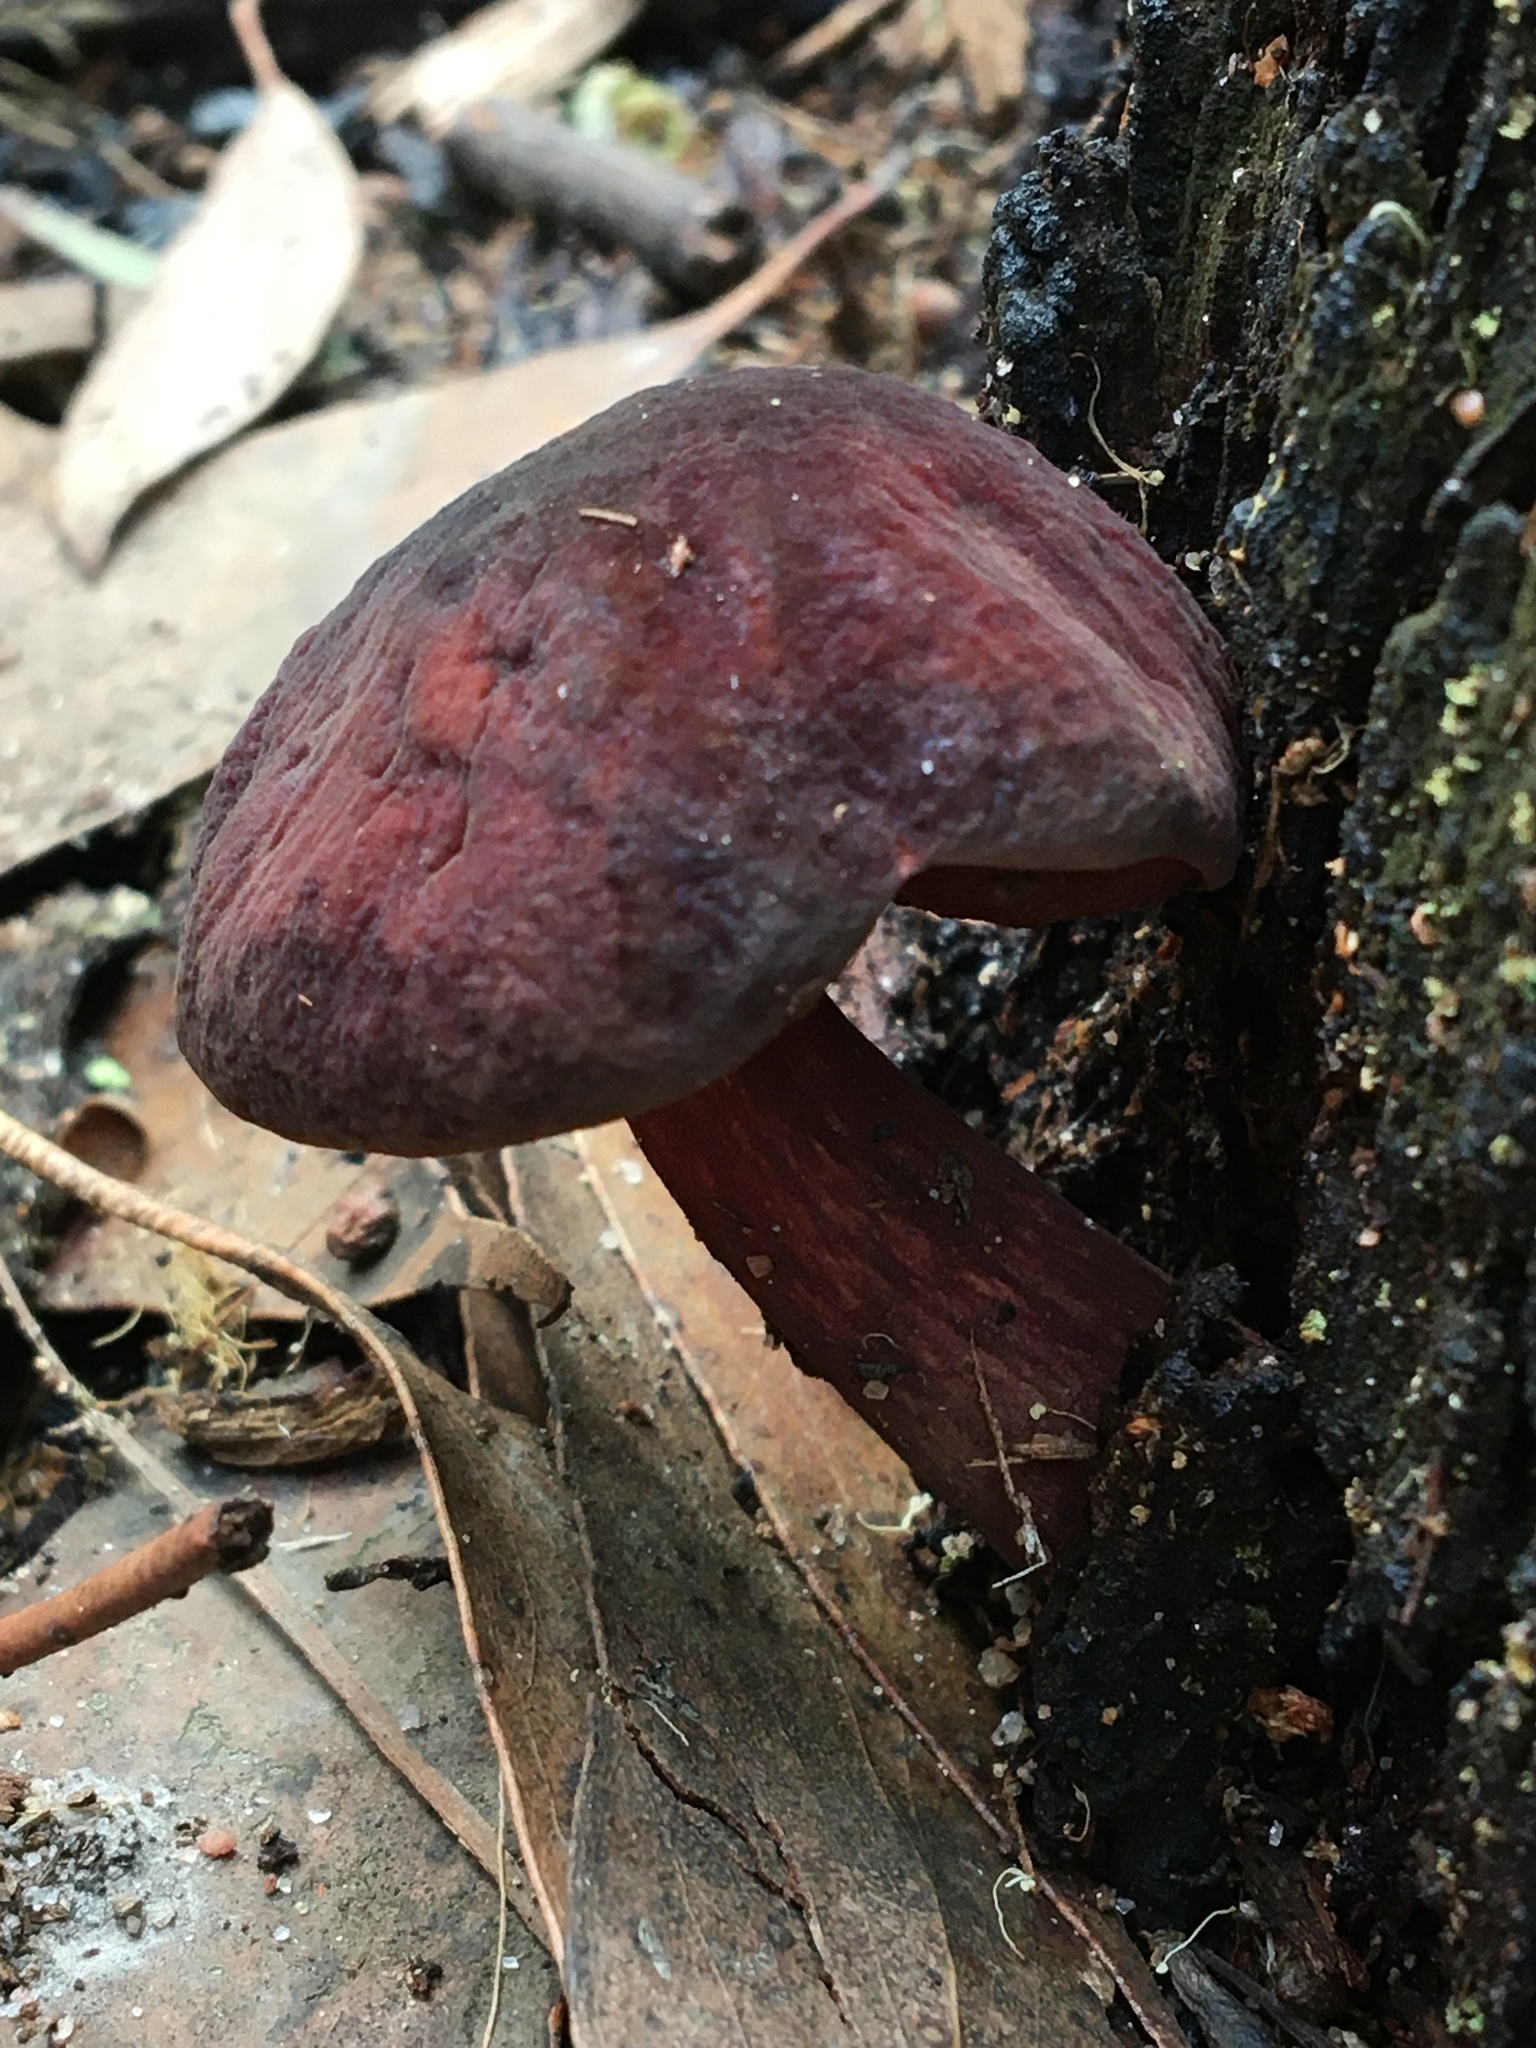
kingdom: Fungi
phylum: Basidiomycota
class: Agaricomycetes
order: Boletales
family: Boletaceae
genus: Boletus
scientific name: Boletus barragensis
